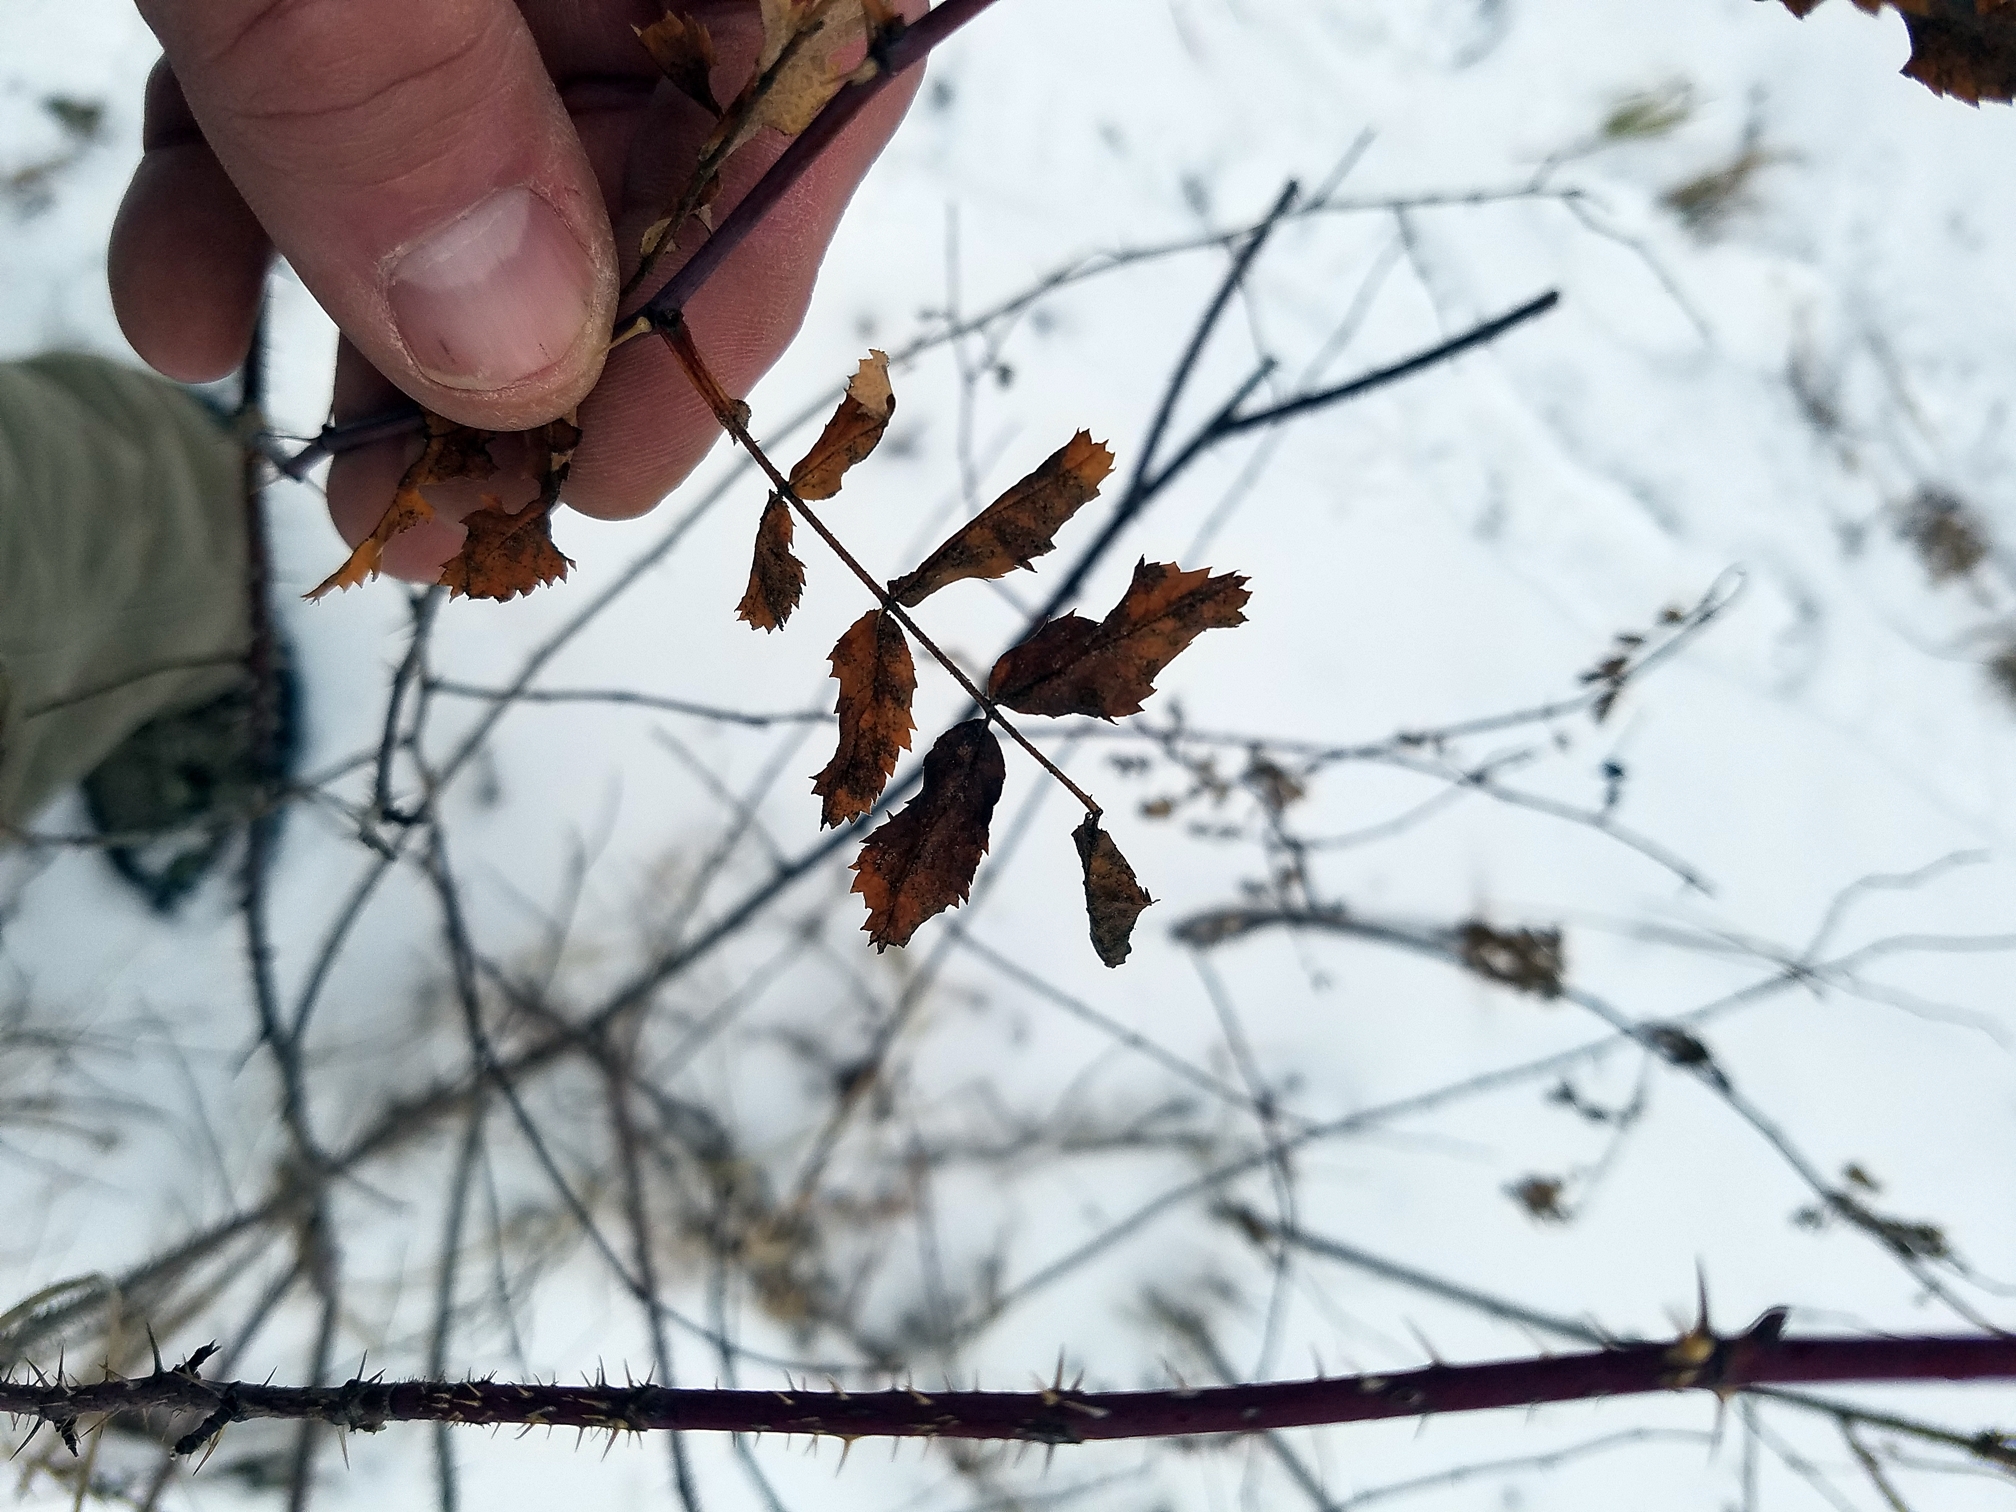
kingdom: Plantae
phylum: Tracheophyta
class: Magnoliopsida
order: Rosales
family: Rosaceae
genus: Rosa
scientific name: Rosa arkansana
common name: Prairie rose
